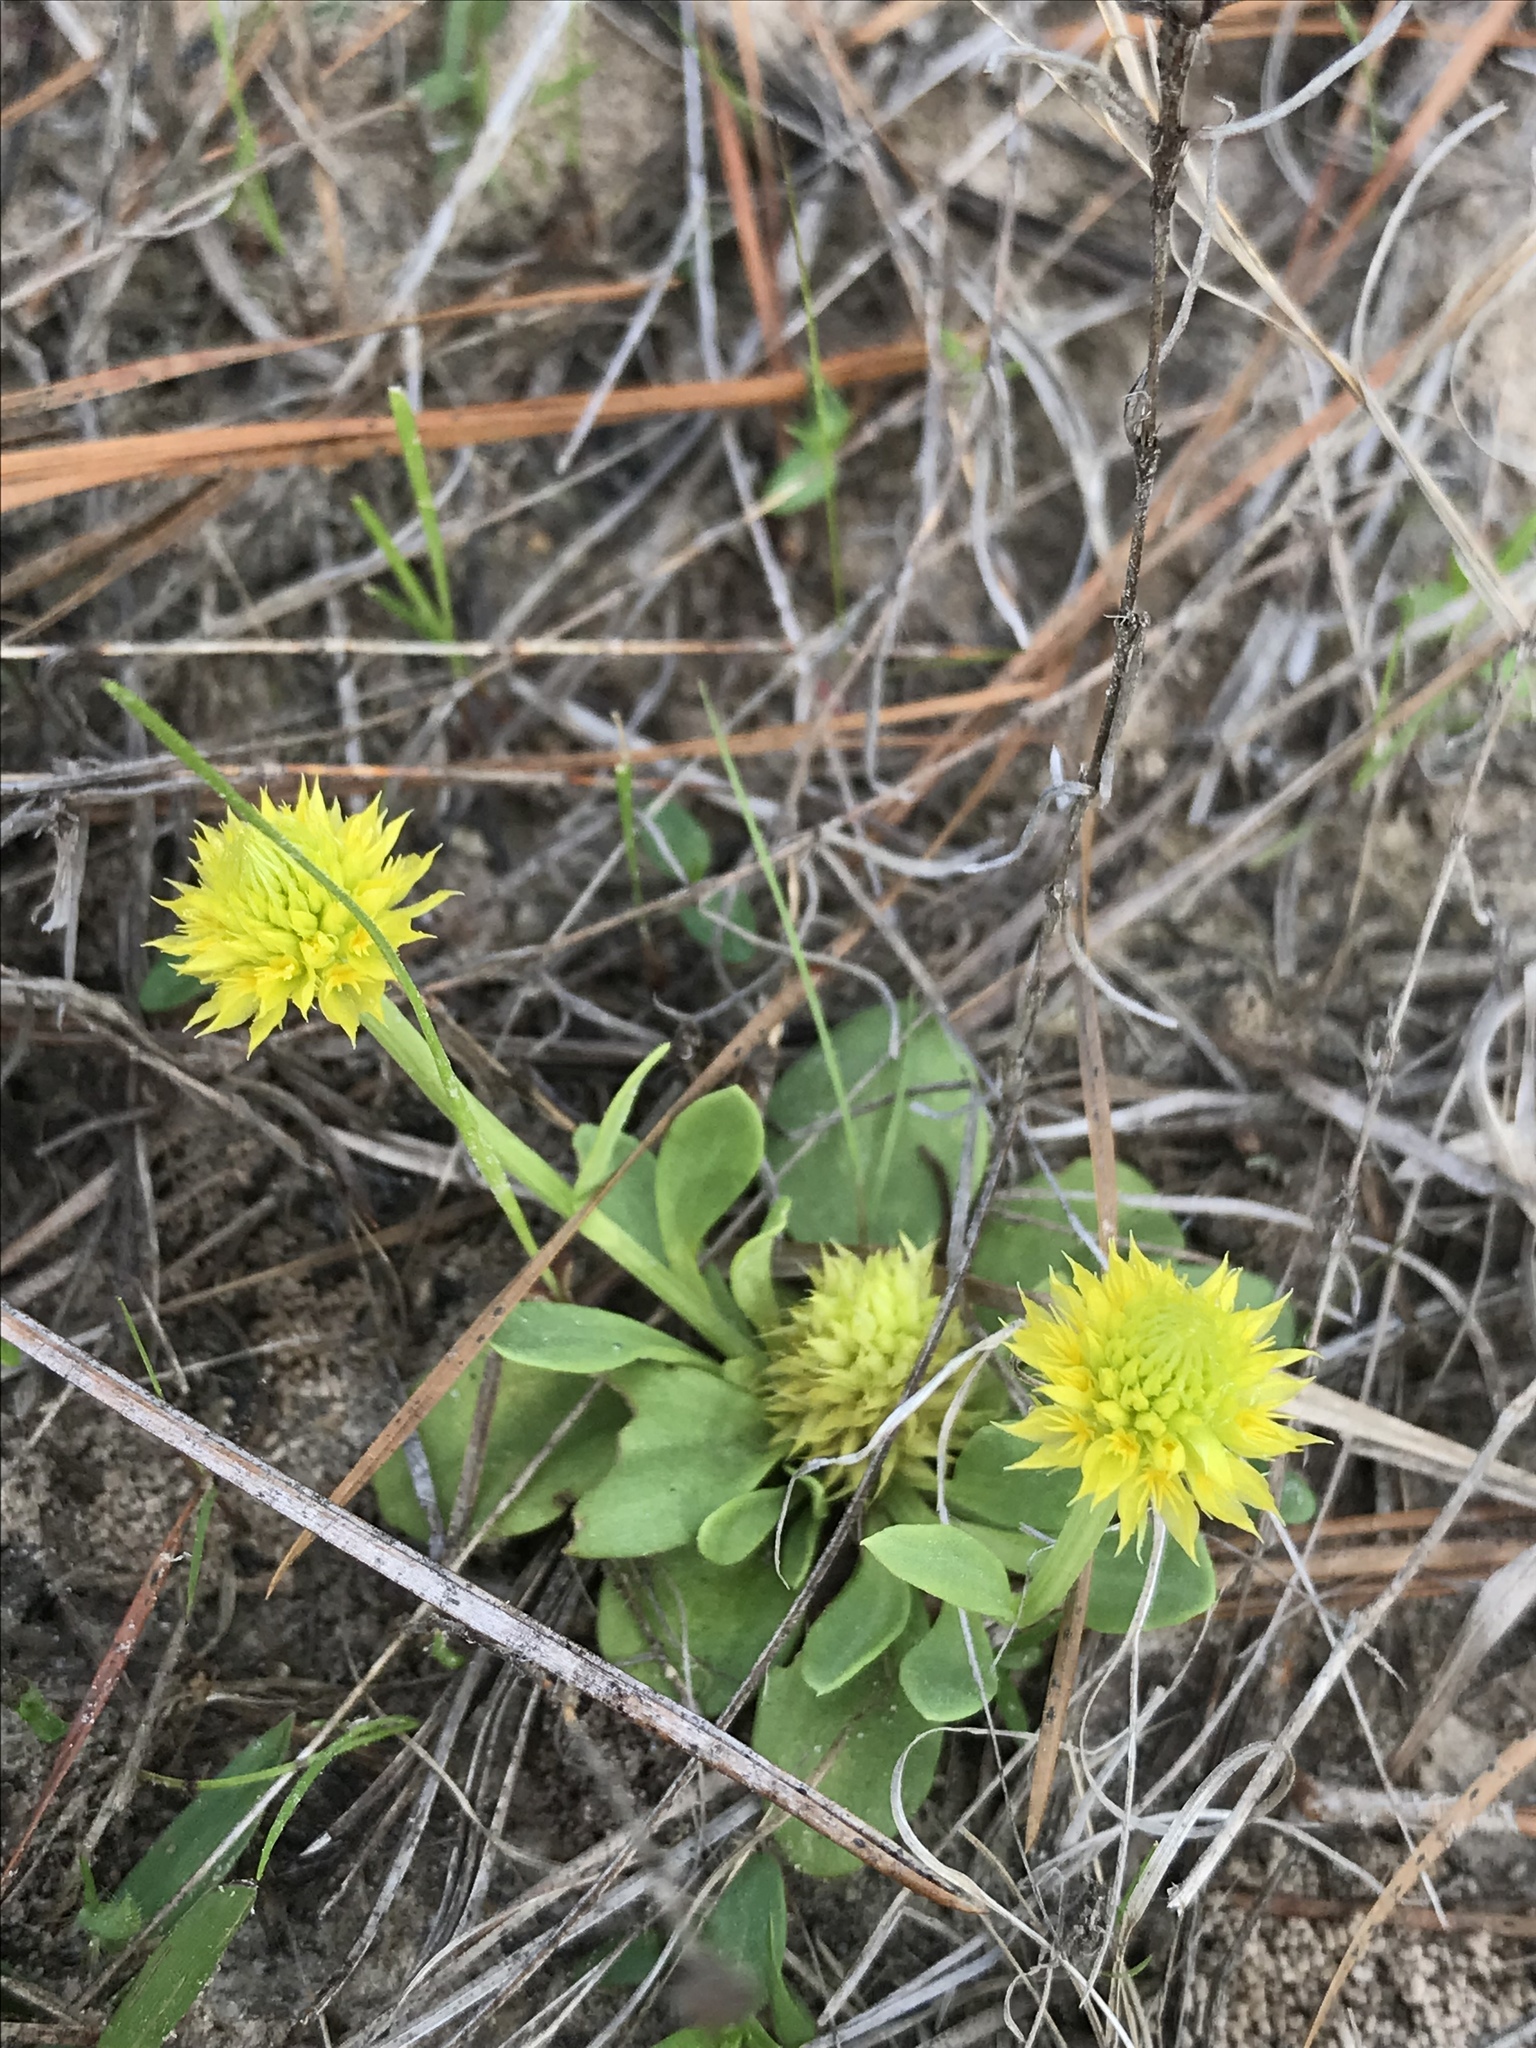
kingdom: Plantae
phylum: Tracheophyta
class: Magnoliopsida
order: Fabales
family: Polygalaceae
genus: Polygala
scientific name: Polygala nana
